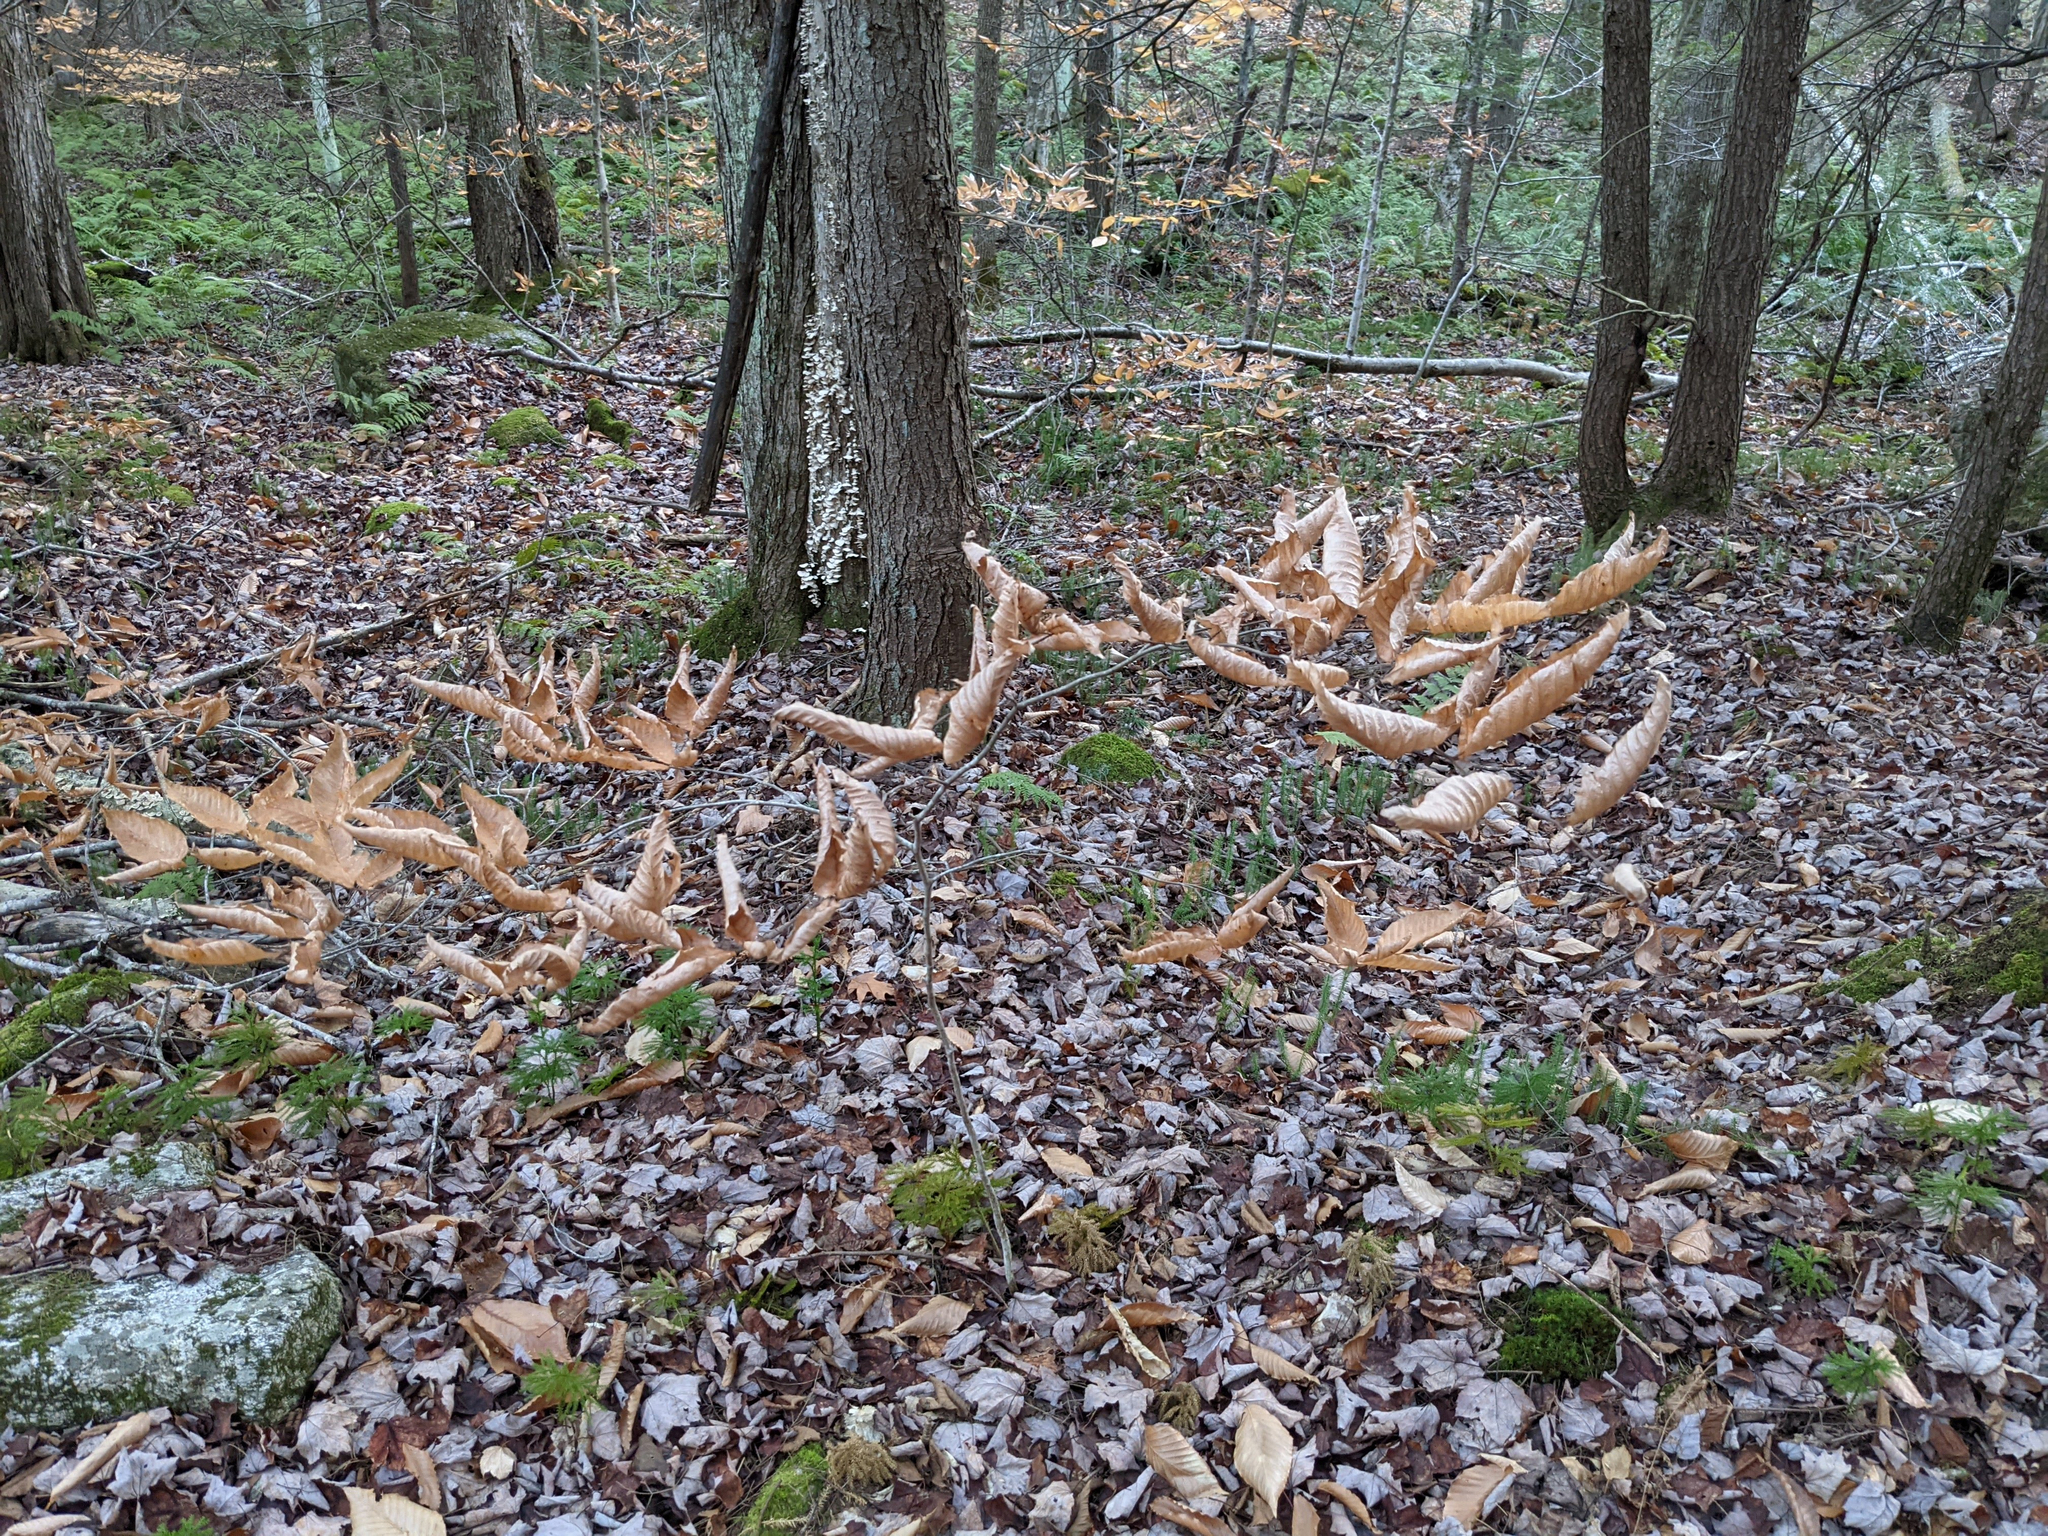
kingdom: Plantae
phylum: Tracheophyta
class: Magnoliopsida
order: Fagales
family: Fagaceae
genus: Fagus
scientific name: Fagus grandifolia
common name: American beech
